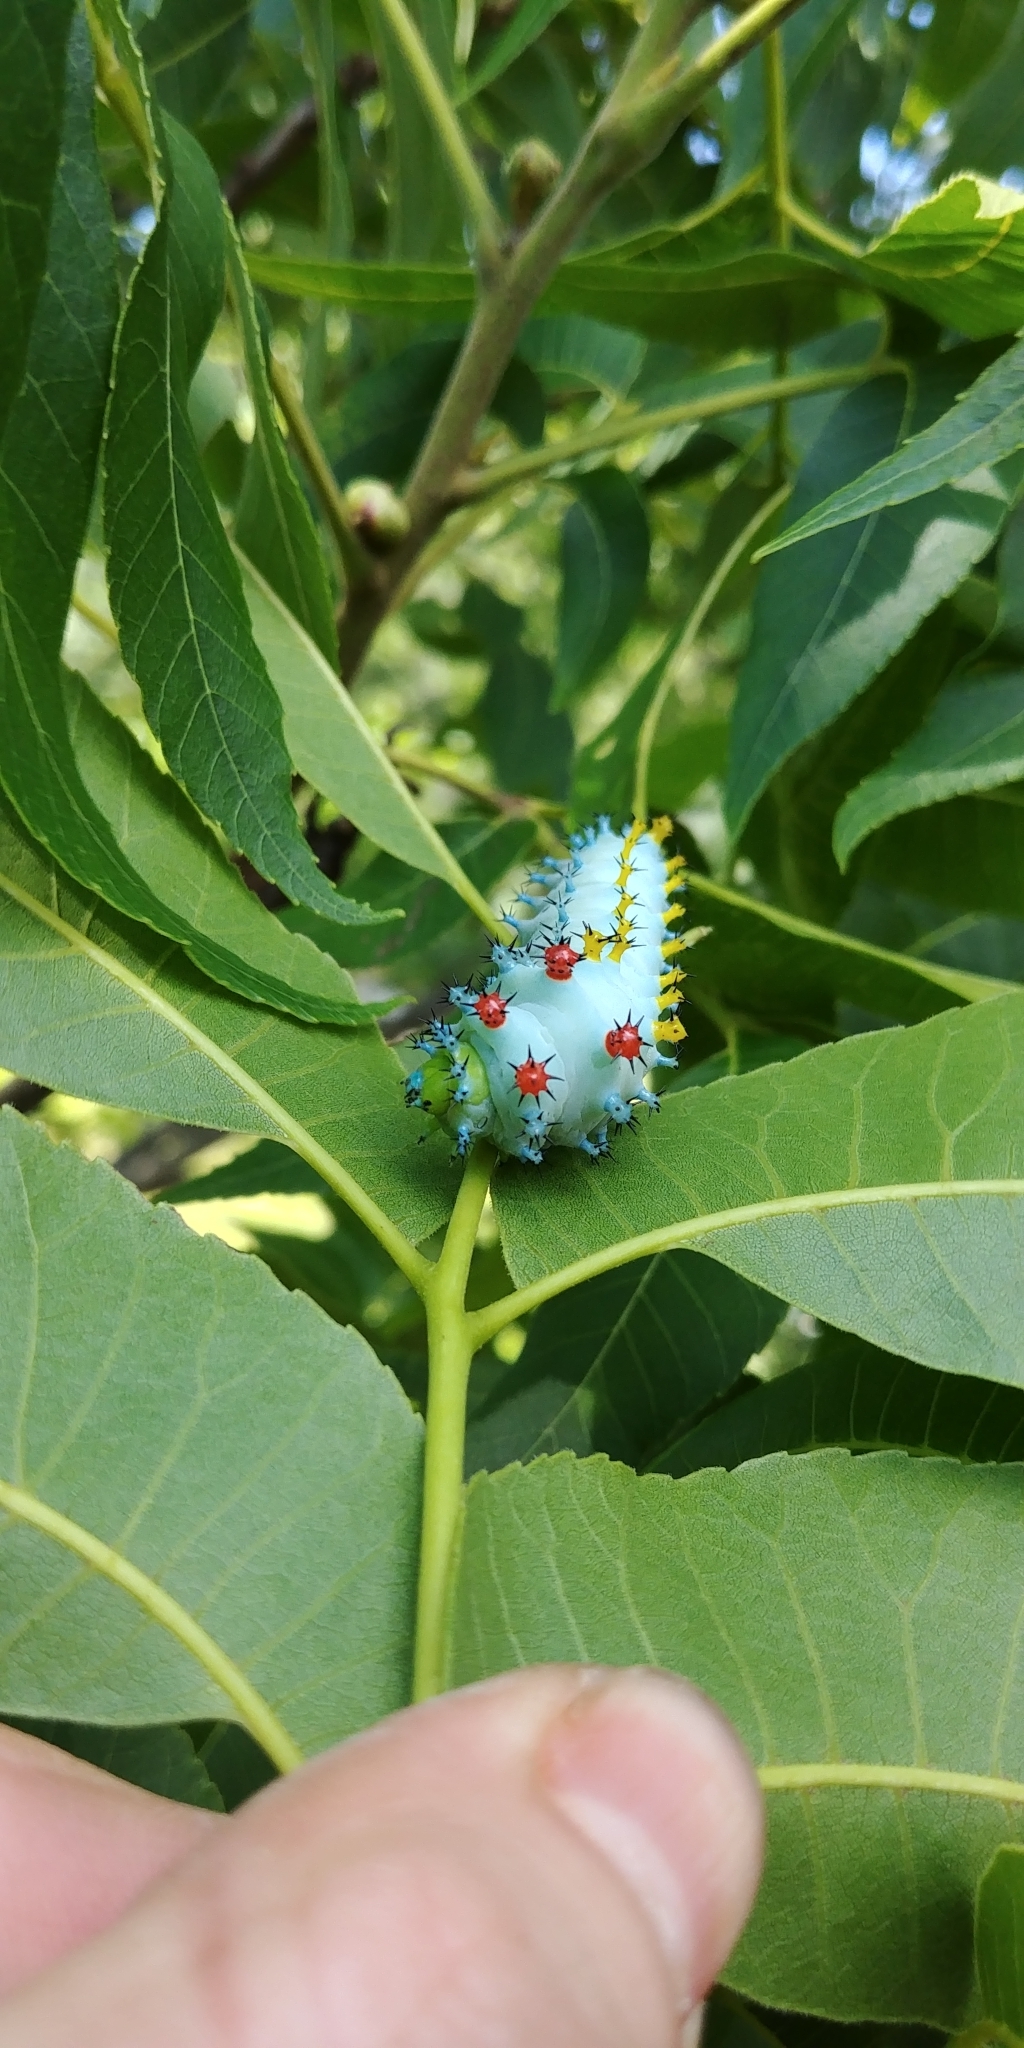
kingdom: Animalia
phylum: Arthropoda
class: Insecta
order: Lepidoptera
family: Saturniidae
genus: Hyalophora
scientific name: Hyalophora cecropia
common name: Cecropia silkmoth
